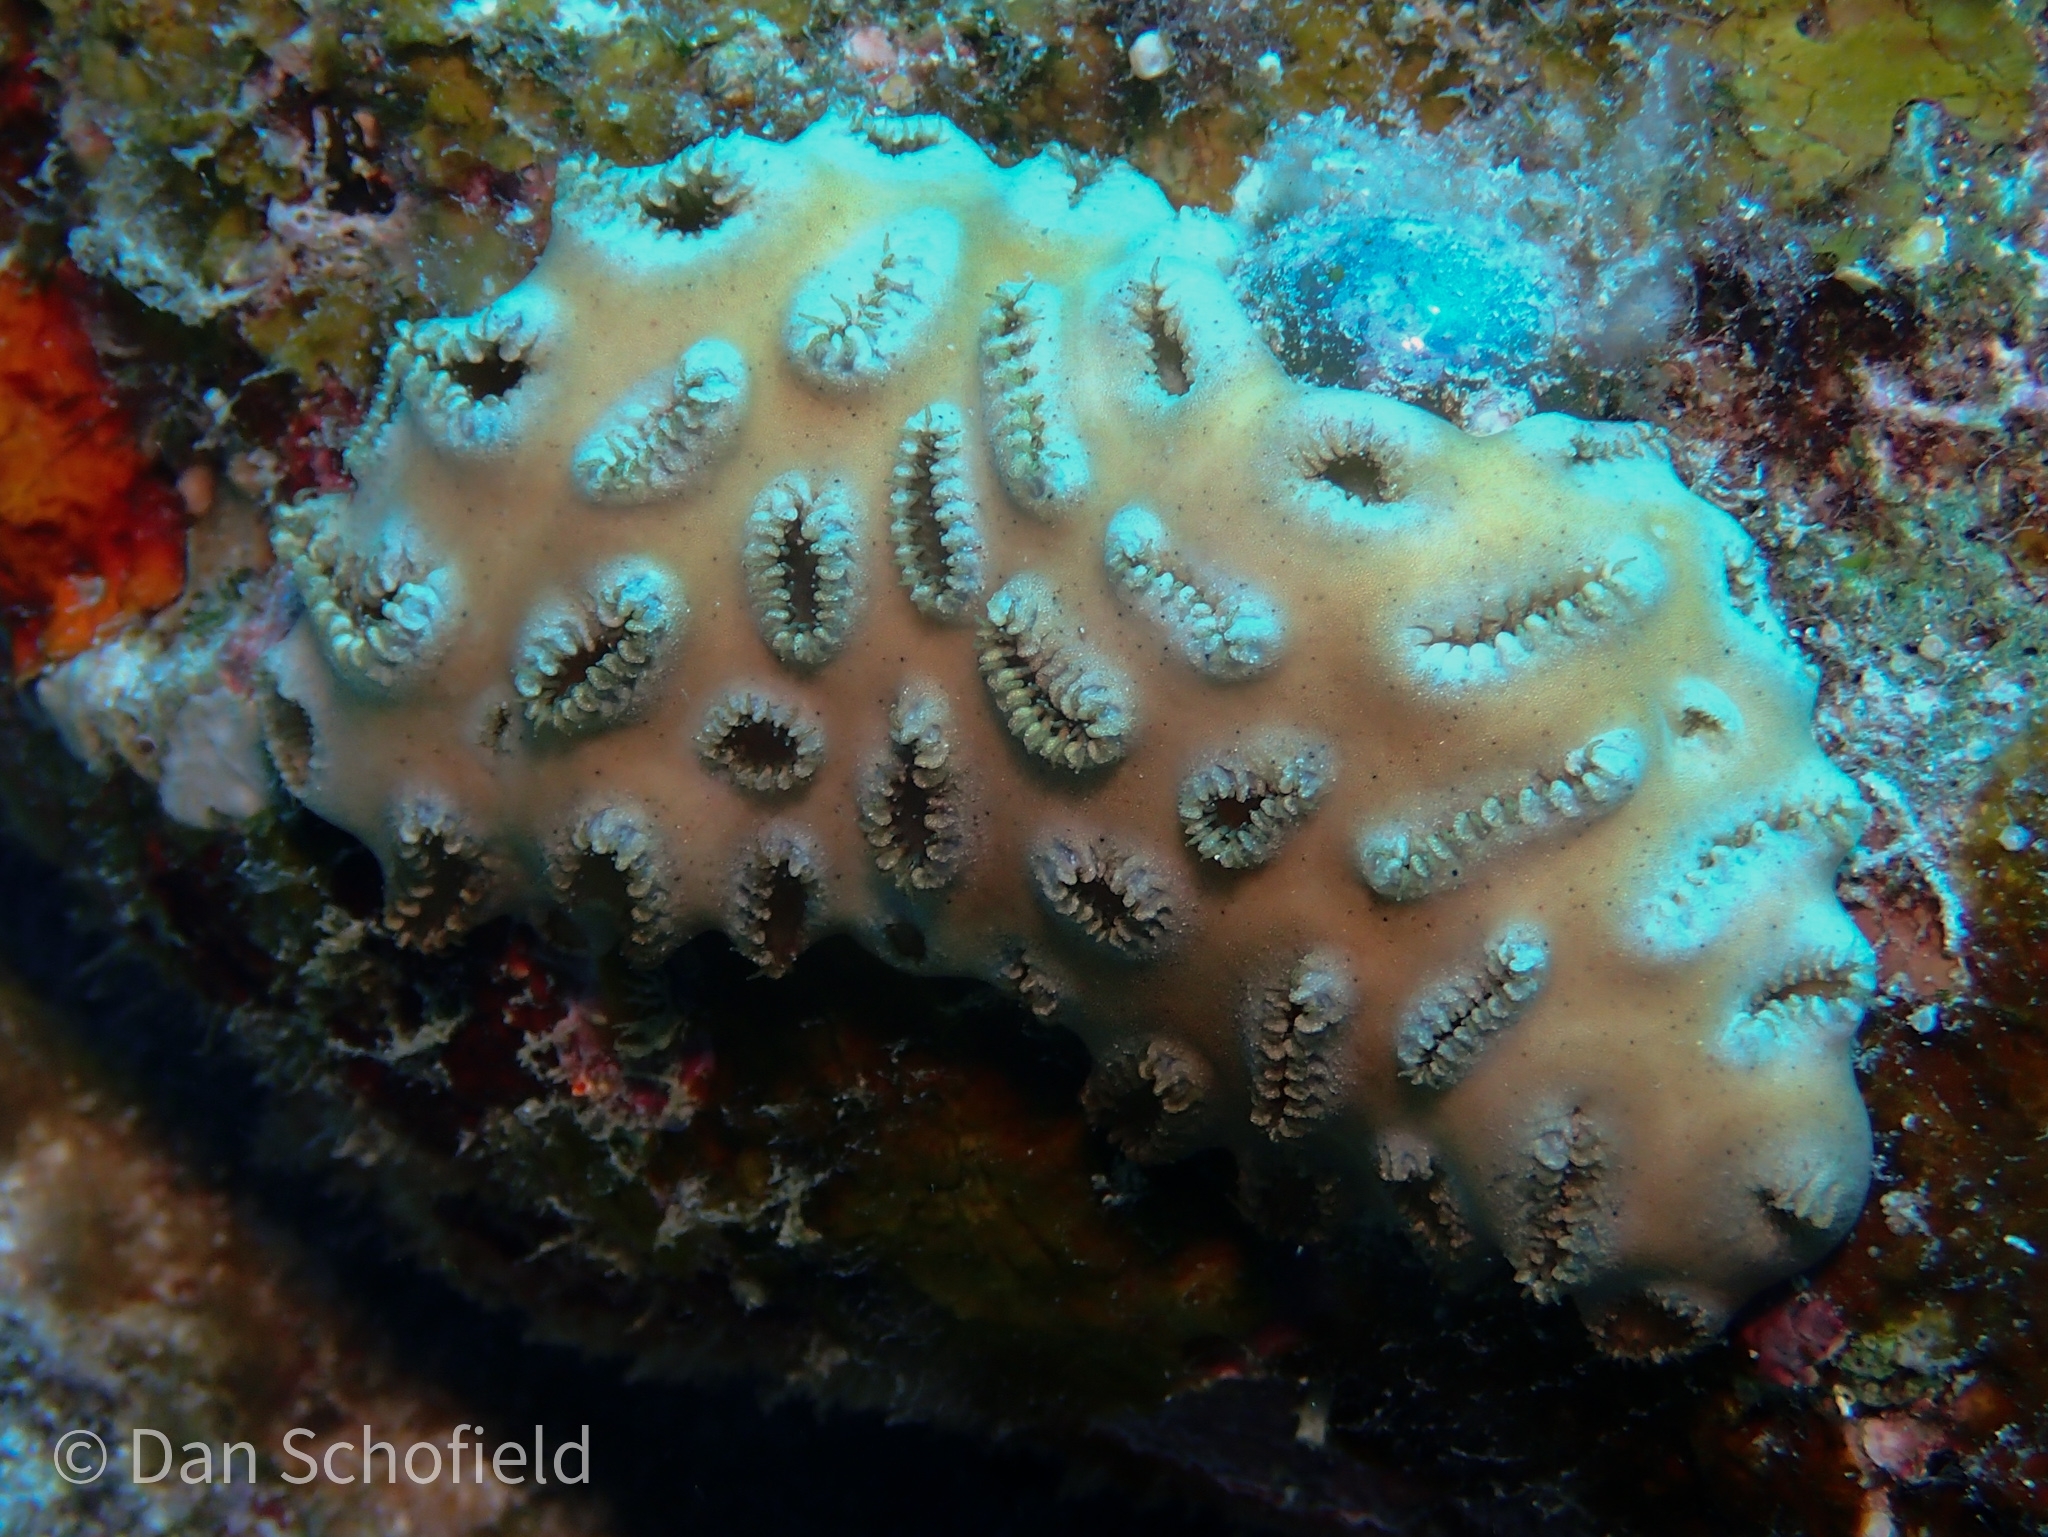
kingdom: Animalia
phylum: Cnidaria
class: Anthozoa
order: Zoantharia
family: Sphenopidae
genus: Palythoa
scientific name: Palythoa tuberculosa
